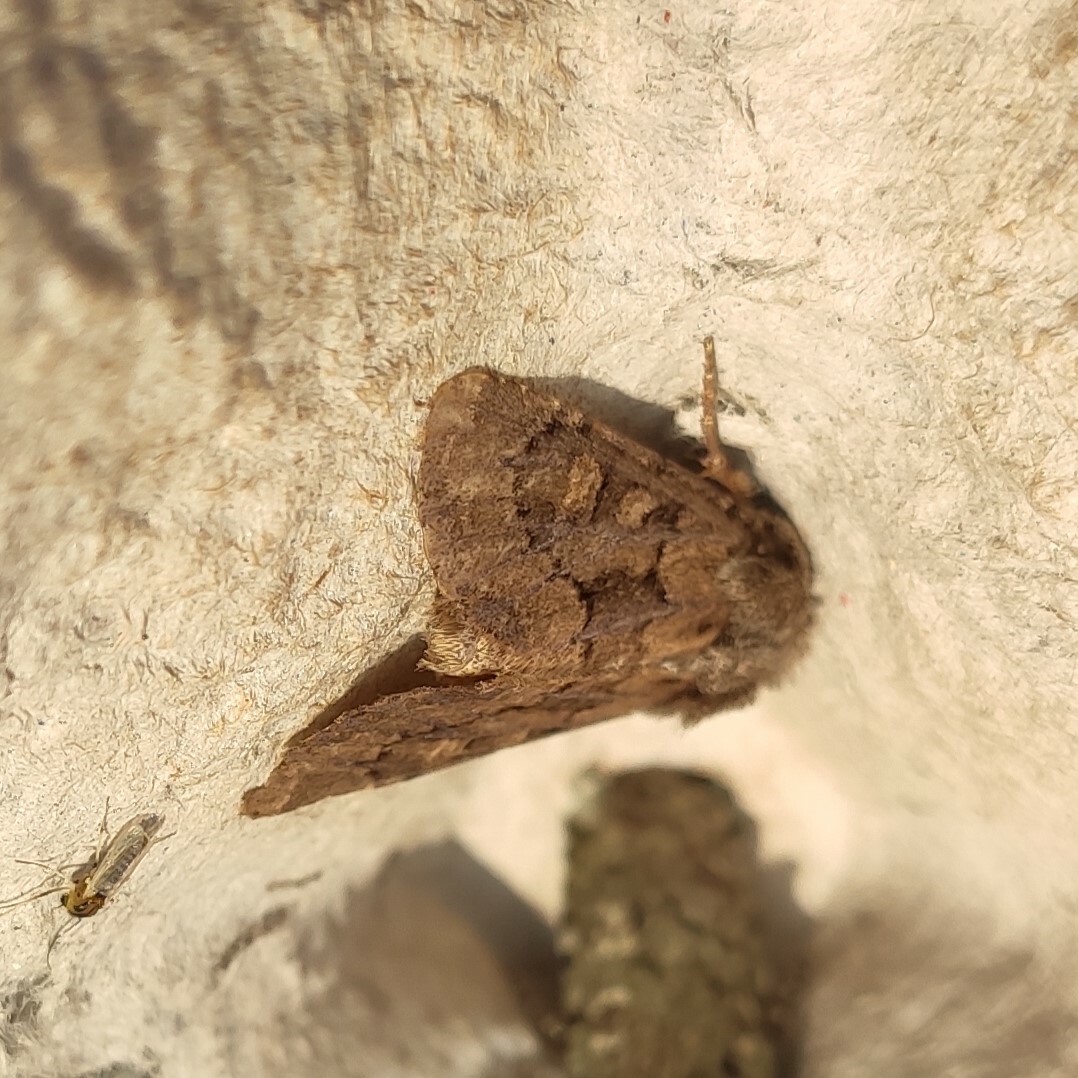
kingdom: Animalia
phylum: Arthropoda
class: Insecta
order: Lepidoptera
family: Noctuidae
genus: Luperina
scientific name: Luperina testacea
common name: Flounced rustic
